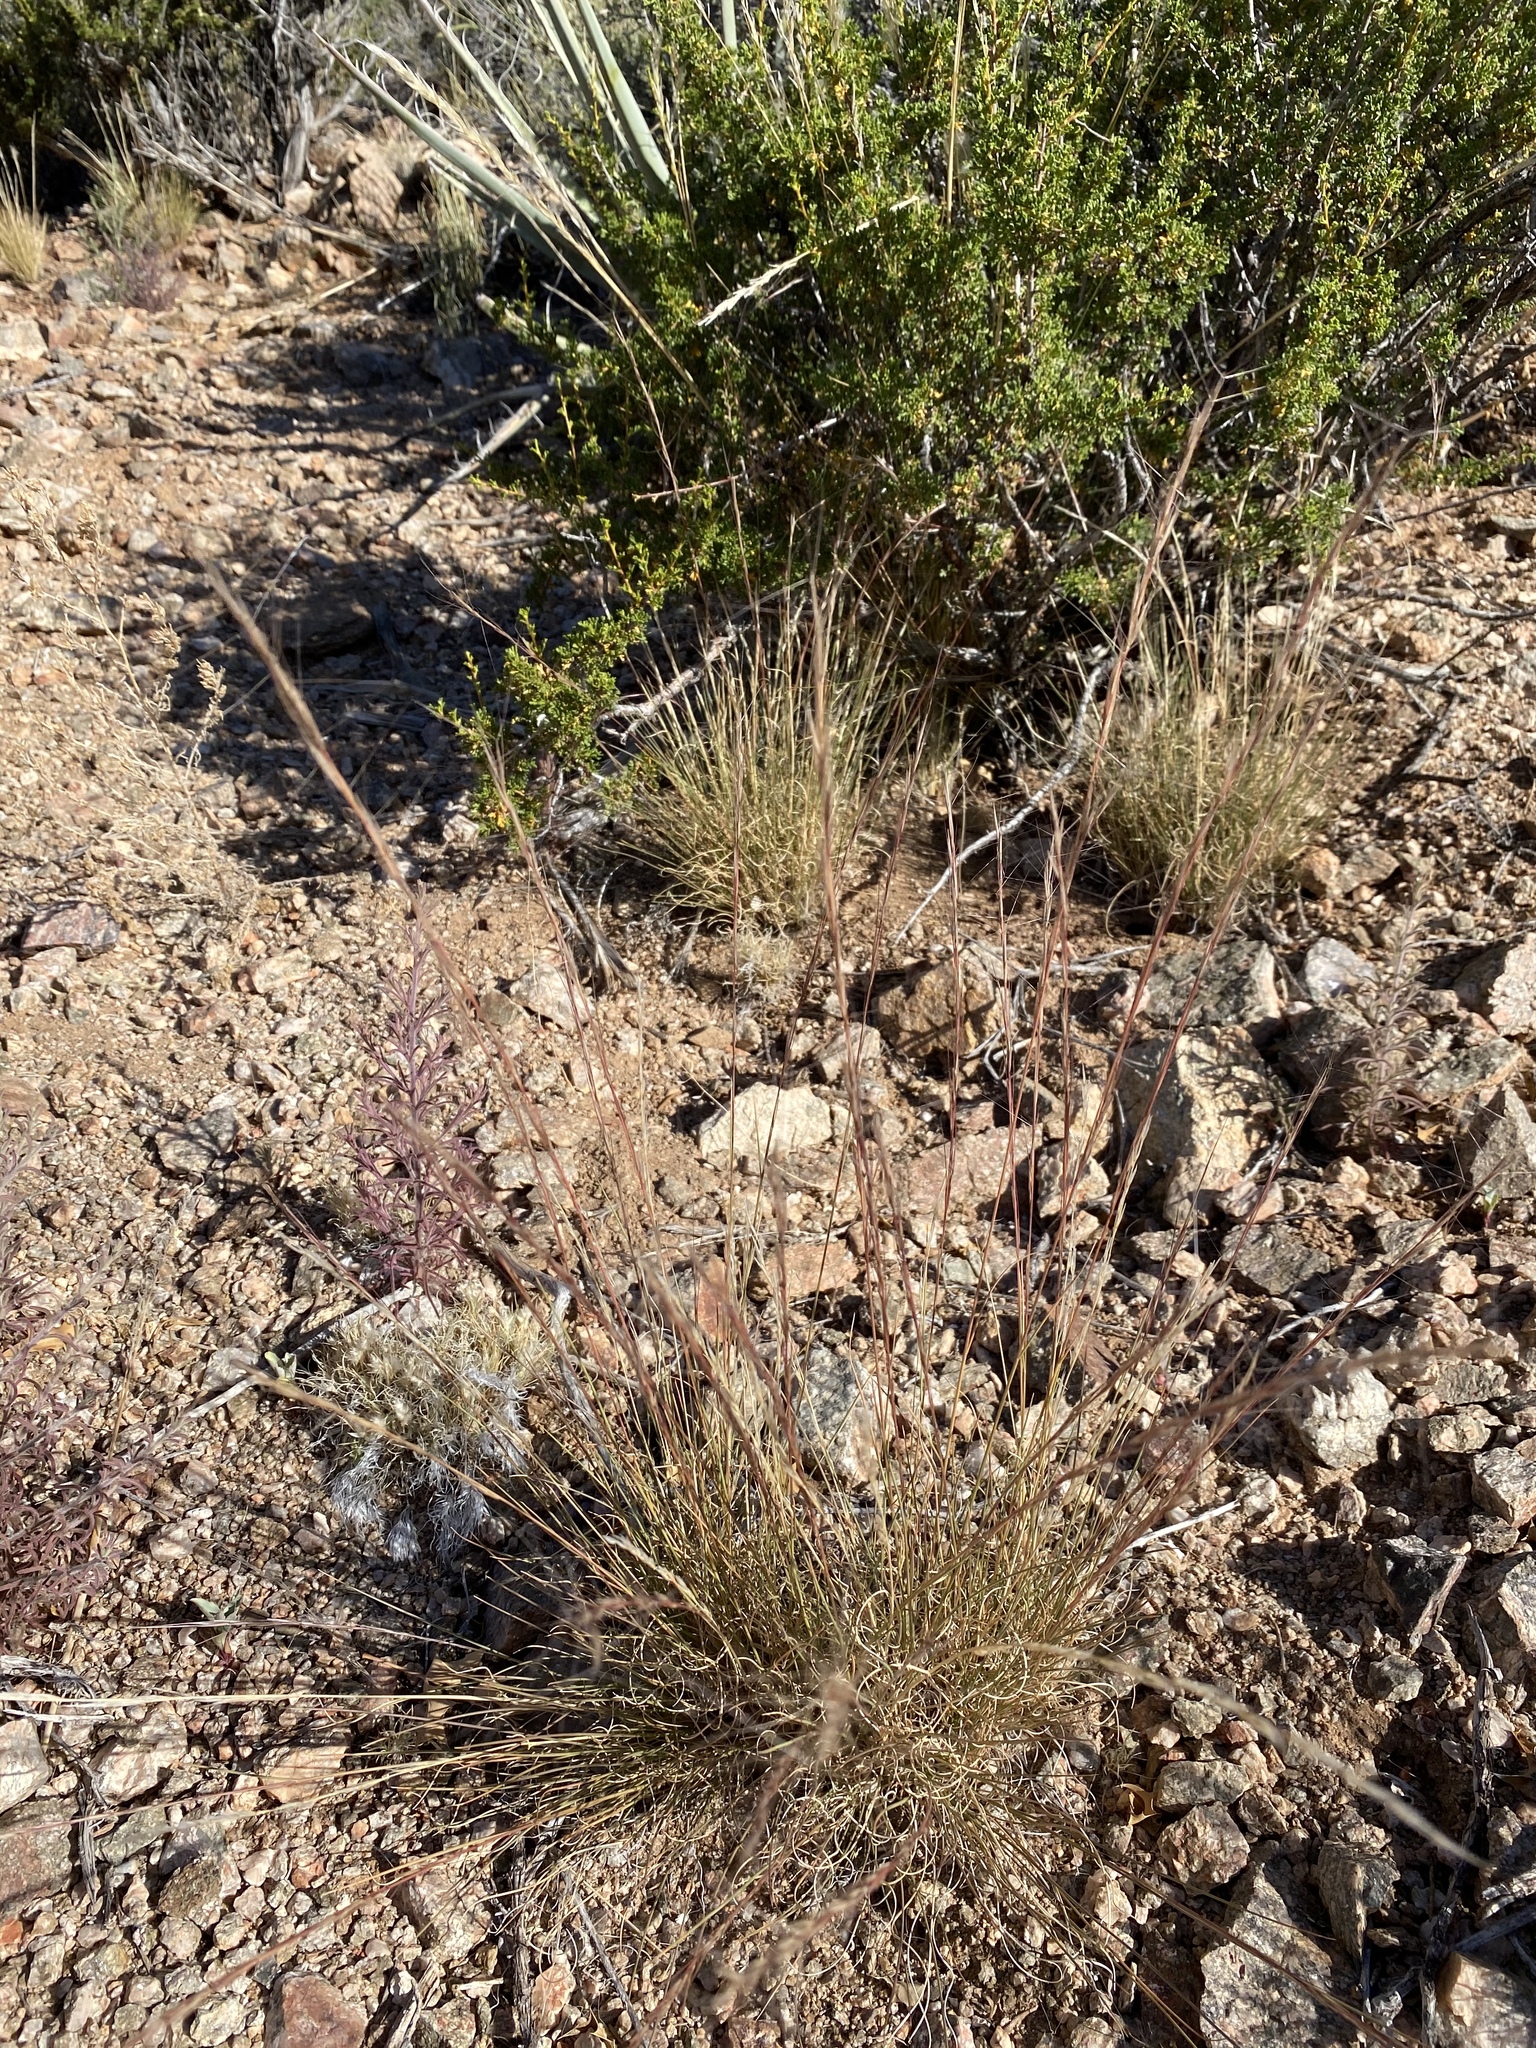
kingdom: Plantae
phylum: Tracheophyta
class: Liliopsida
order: Poales
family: Poaceae
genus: Aristida
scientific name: Aristida purpurea
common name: Purple threeawn
